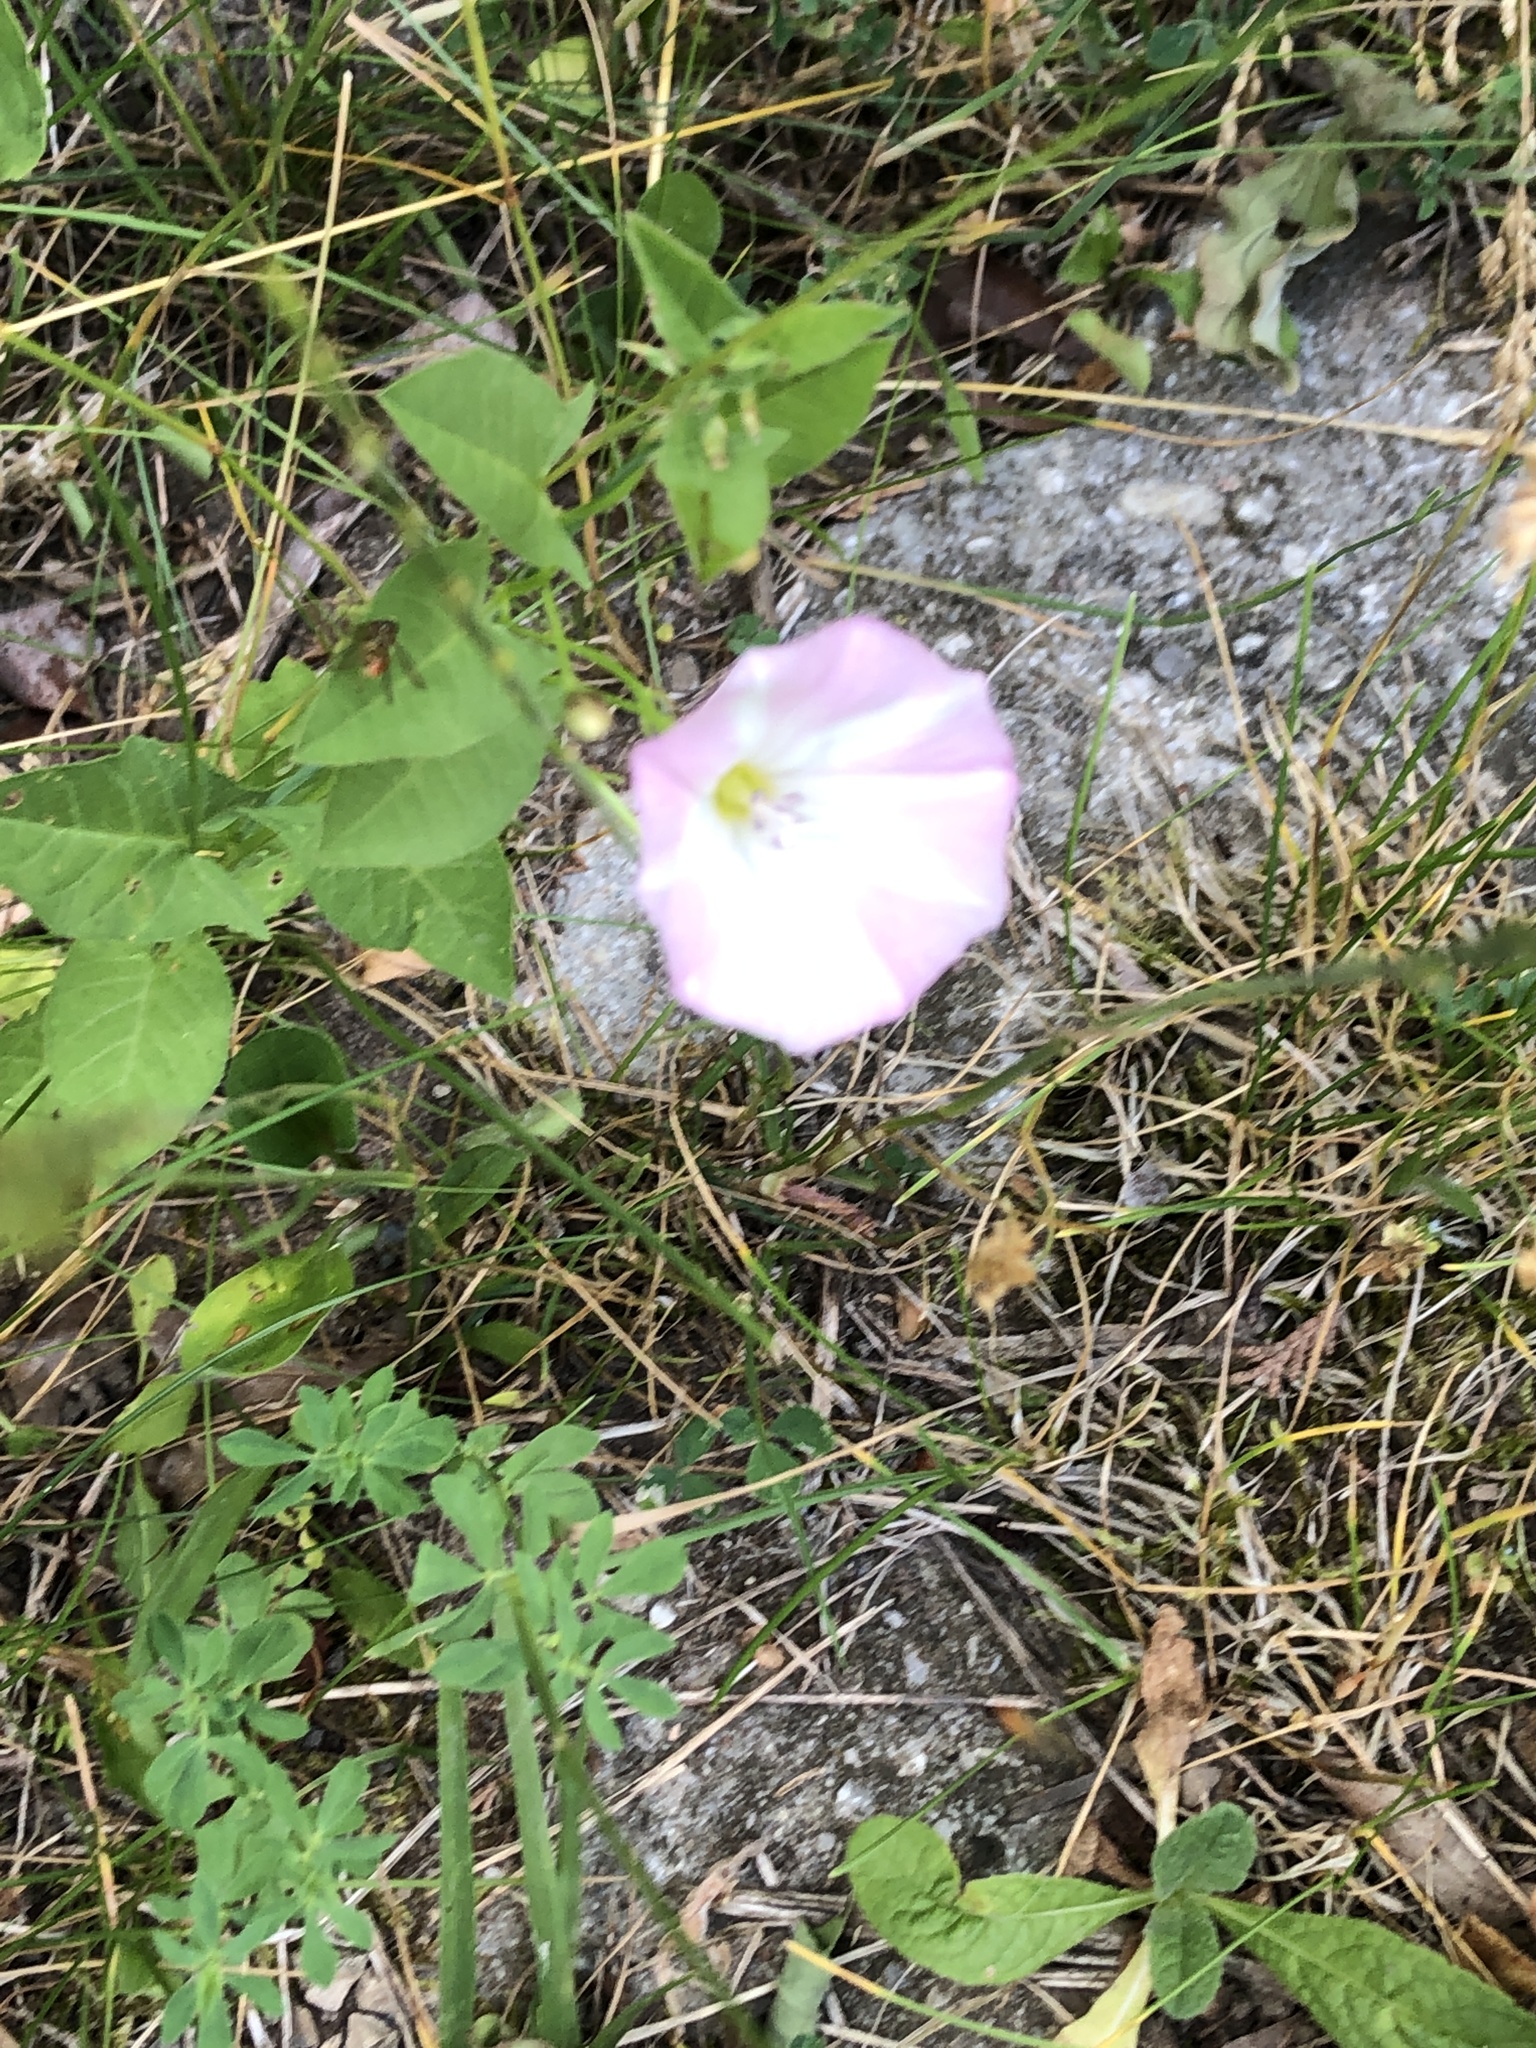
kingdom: Plantae
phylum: Tracheophyta
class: Magnoliopsida
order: Solanales
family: Convolvulaceae
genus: Convolvulus
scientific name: Convolvulus arvensis
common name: Field bindweed
